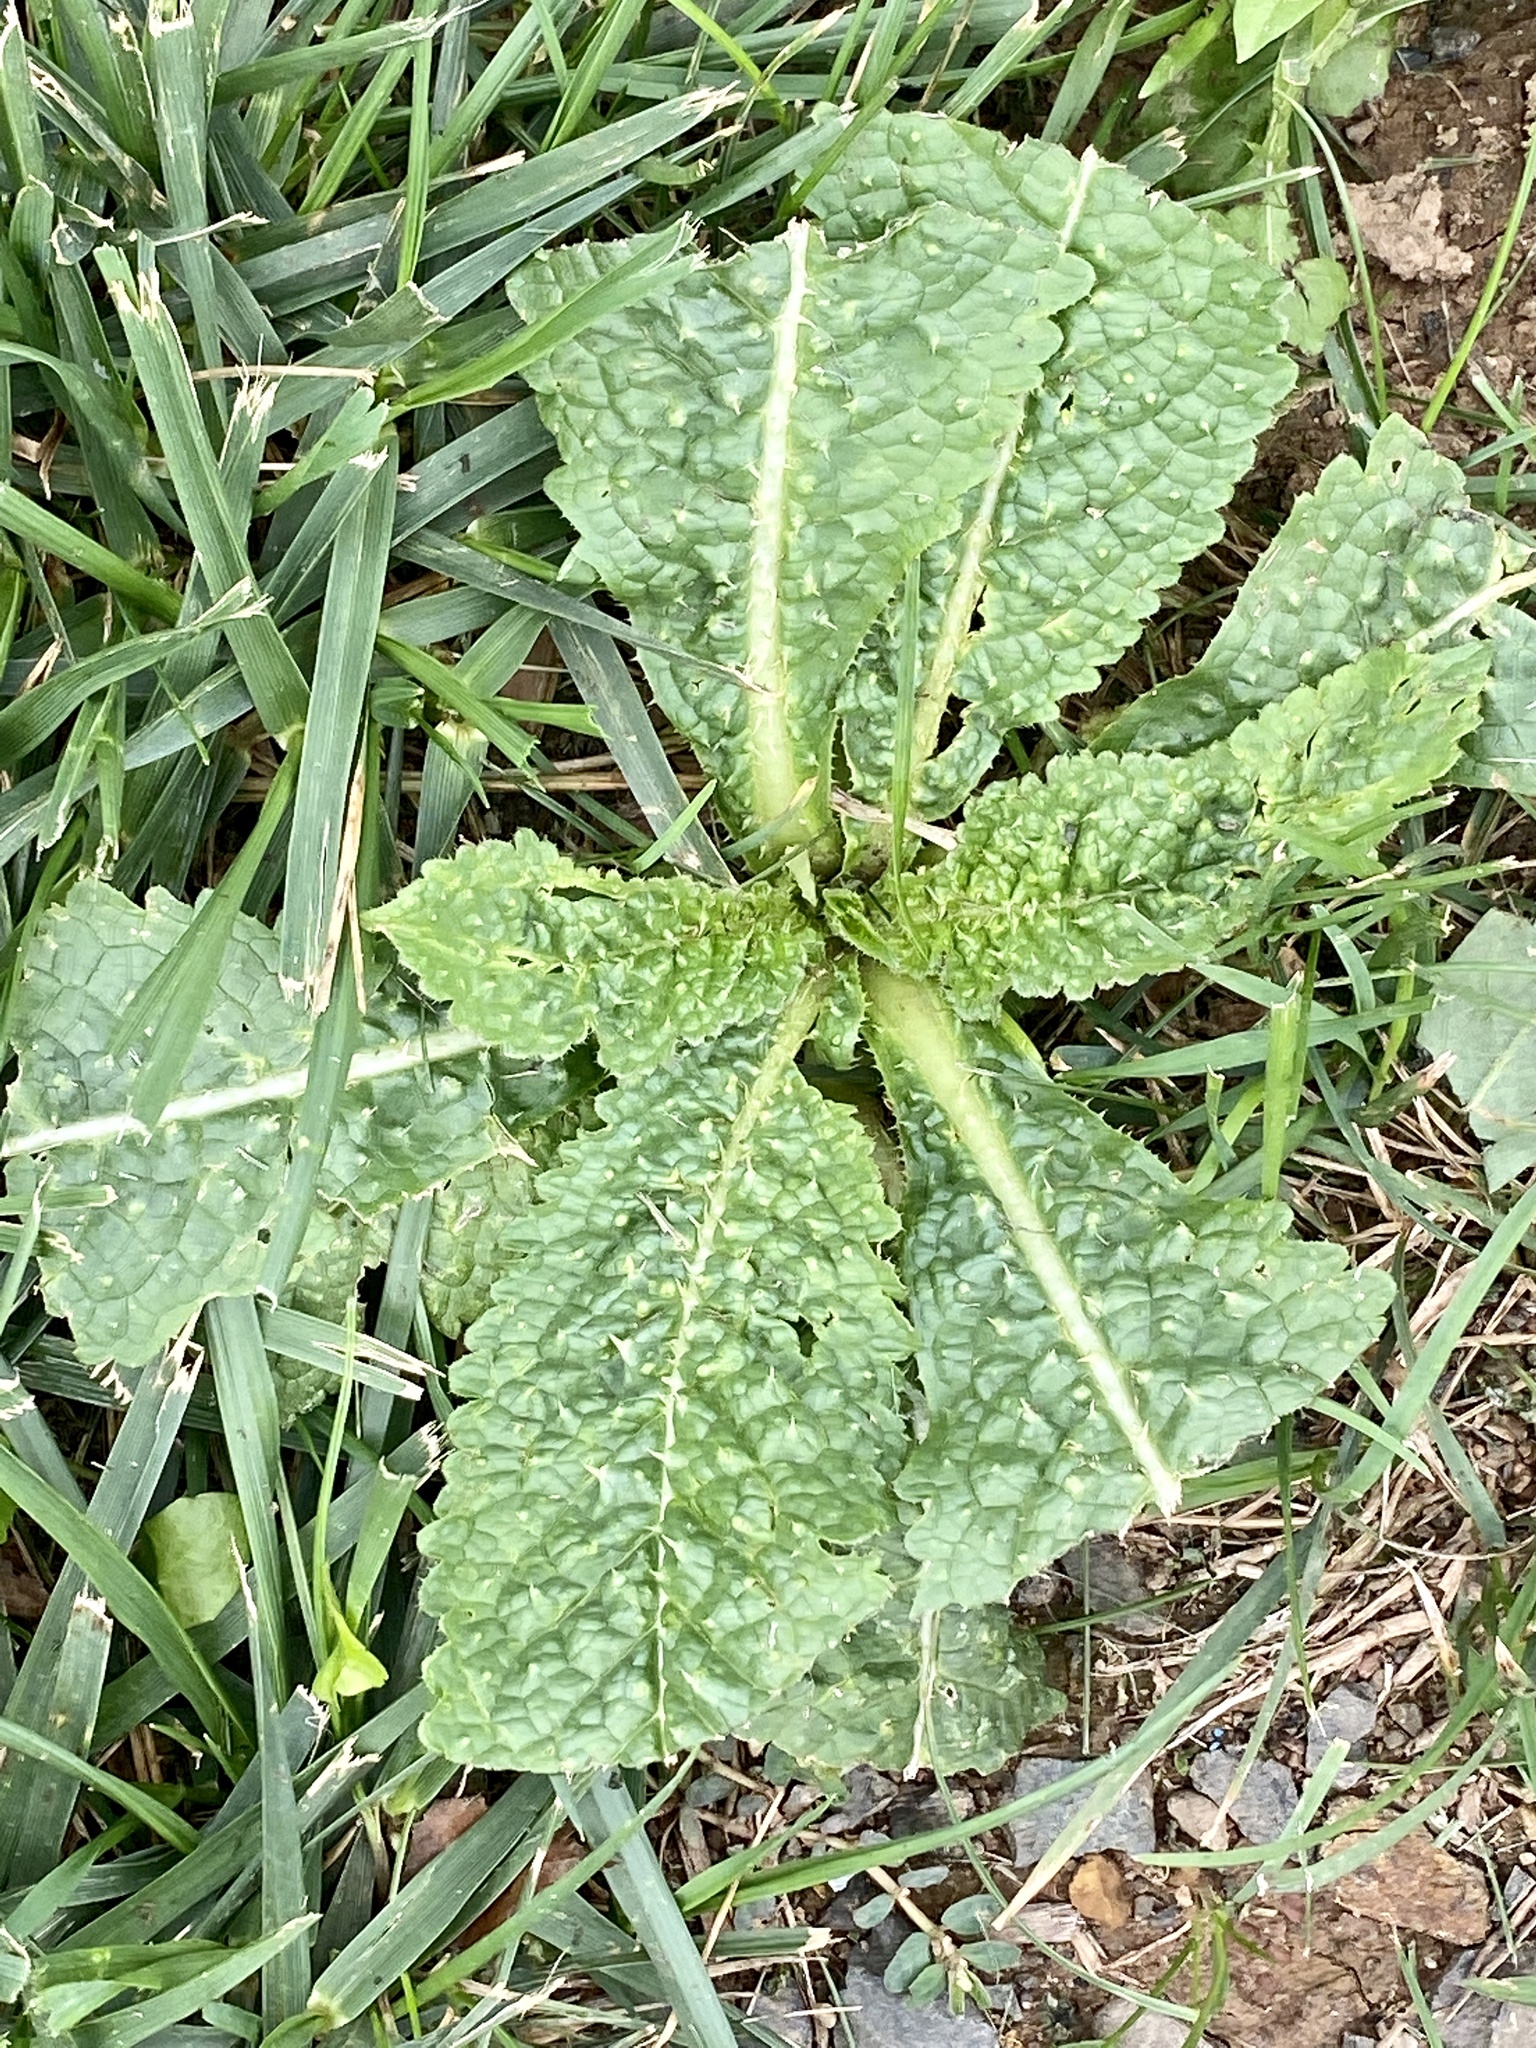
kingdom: Plantae
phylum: Tracheophyta
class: Magnoliopsida
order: Dipsacales
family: Caprifoliaceae
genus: Dipsacus
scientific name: Dipsacus fullonum
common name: Teasel
